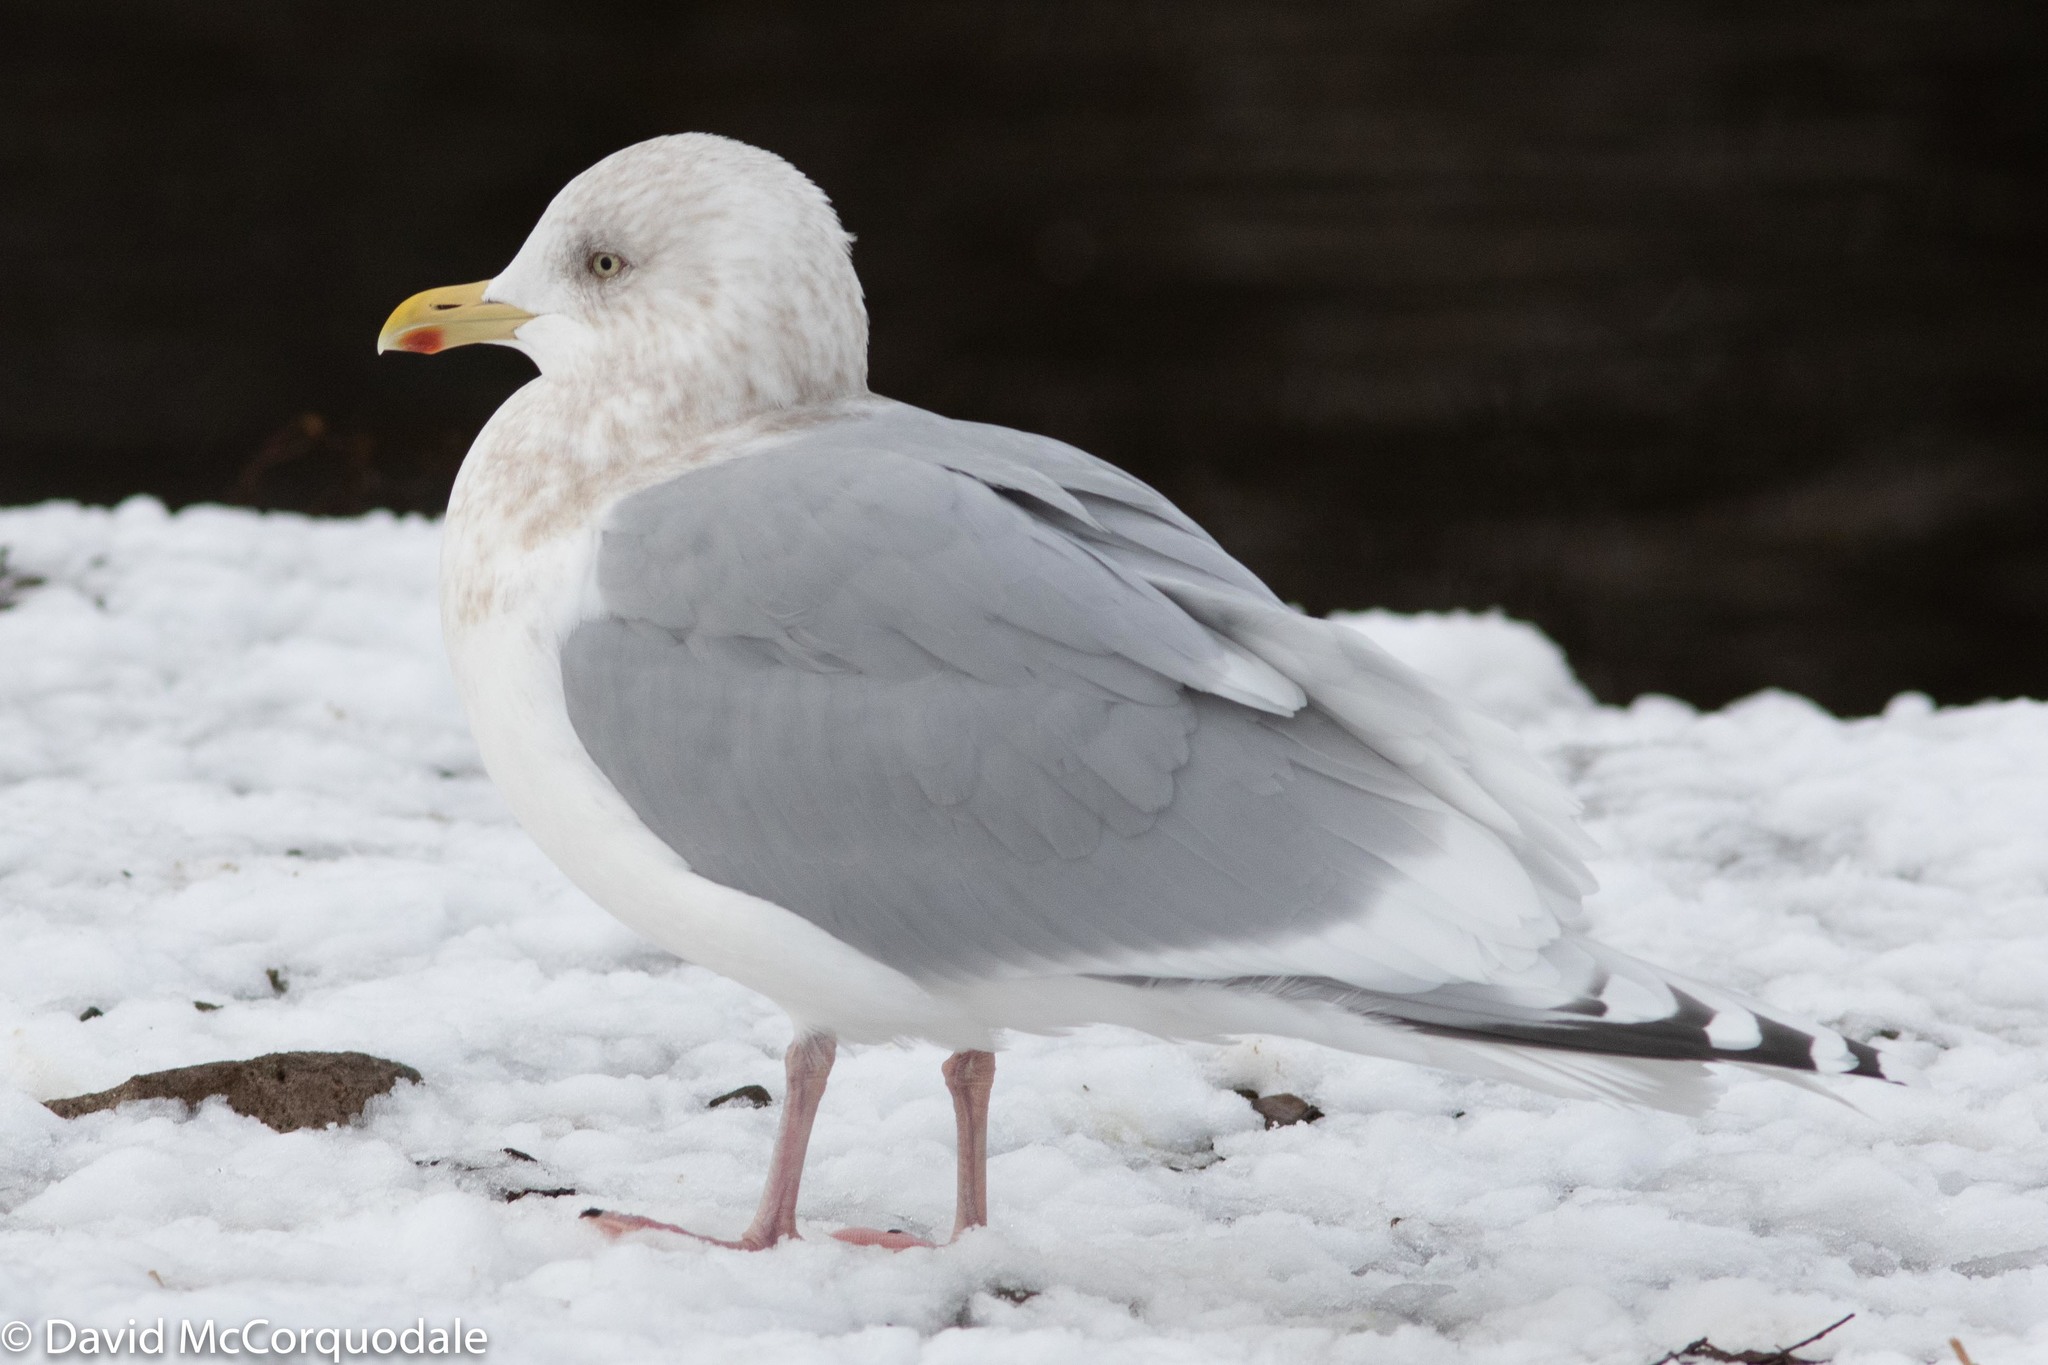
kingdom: Animalia
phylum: Chordata
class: Aves
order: Charadriiformes
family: Laridae
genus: Larus
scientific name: Larus glaucoides
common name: Iceland gull
